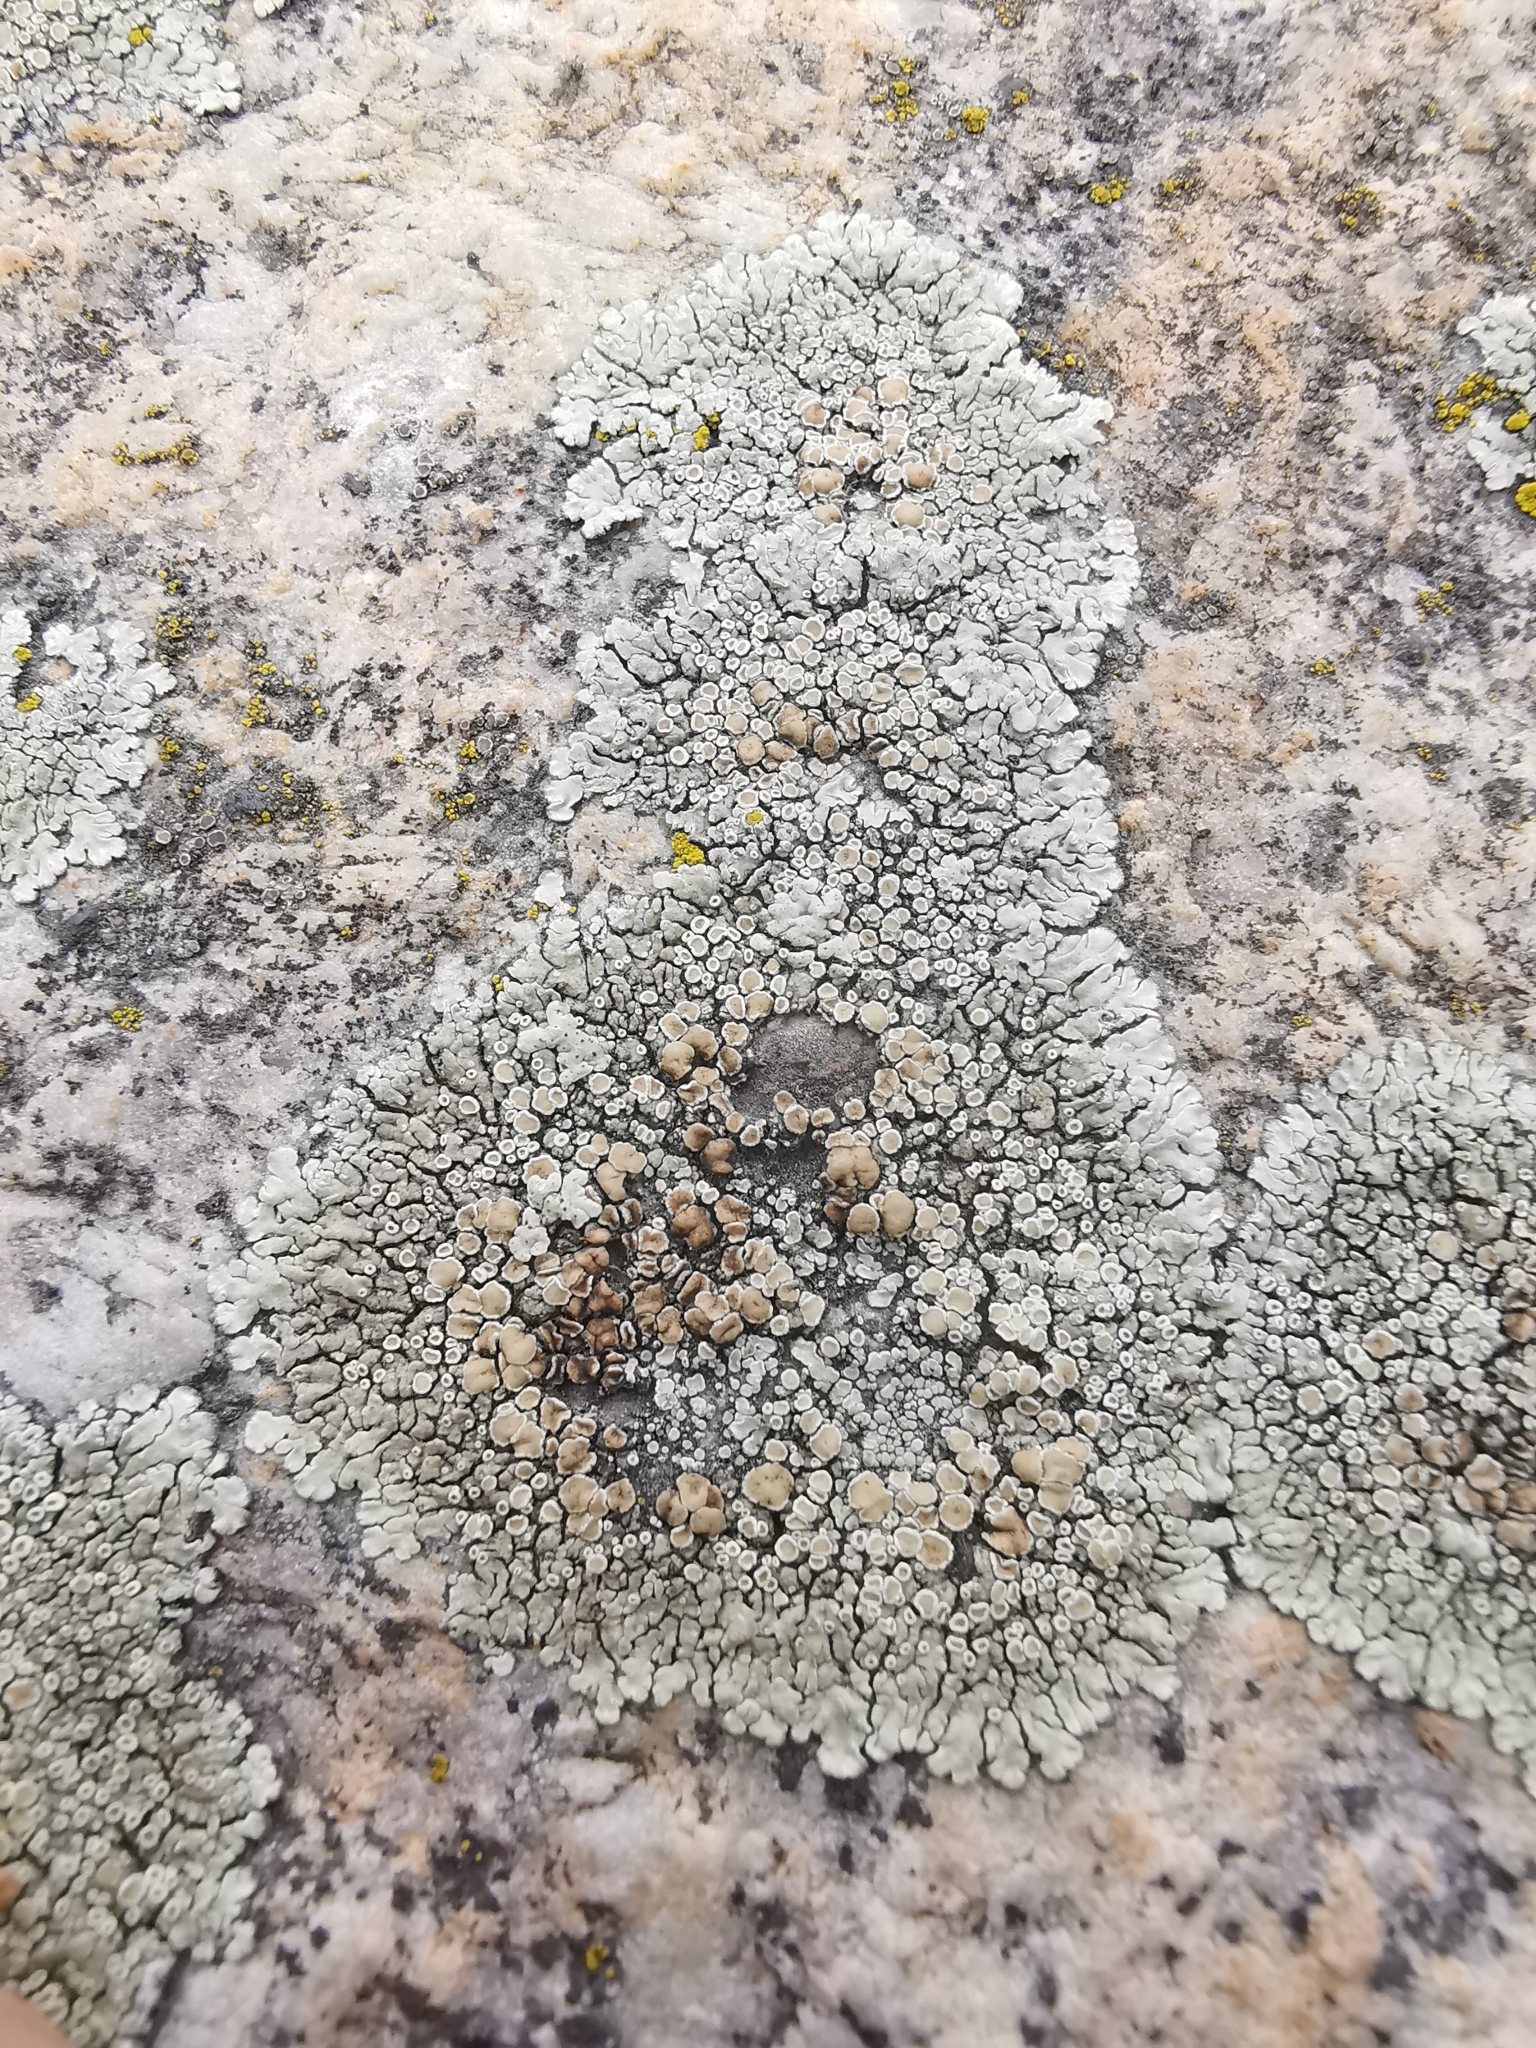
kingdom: Fungi
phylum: Ascomycota
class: Lecanoromycetes
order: Lecanorales
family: Lecanoraceae
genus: Protoparmeliopsis
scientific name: Protoparmeliopsis muralis
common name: Stonewall rim lichen
